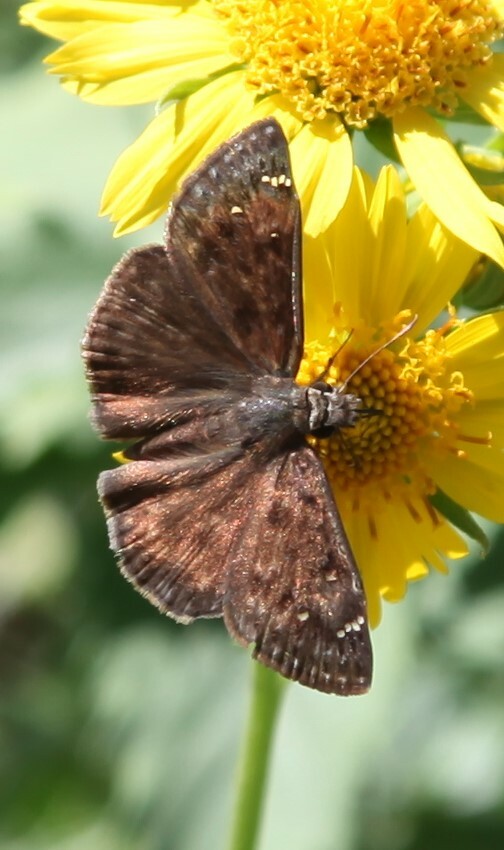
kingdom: Animalia
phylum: Arthropoda
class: Insecta
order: Lepidoptera
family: Hesperiidae
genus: Erynnis
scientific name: Erynnis horatius
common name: Horace's duskywing
